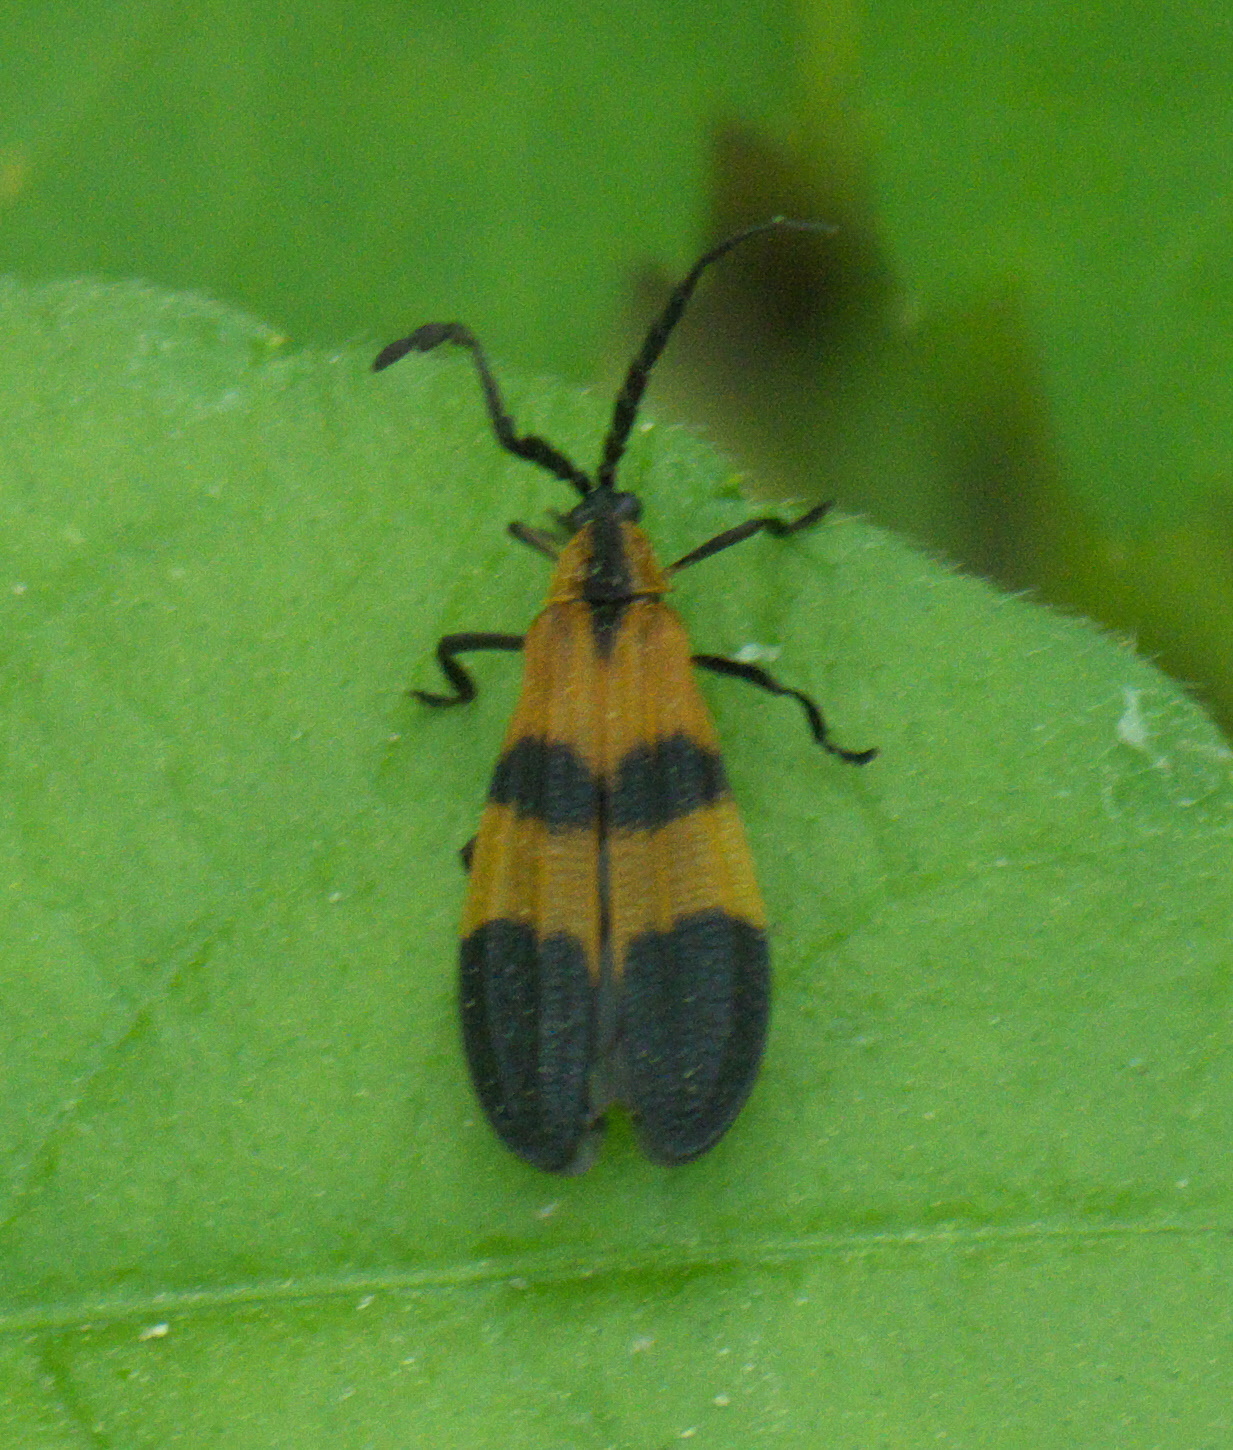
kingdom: Animalia
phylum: Arthropoda
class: Insecta
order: Coleoptera
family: Lycidae
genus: Calopteron
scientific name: Calopteron reticulatum
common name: Banded net-winged beetle
